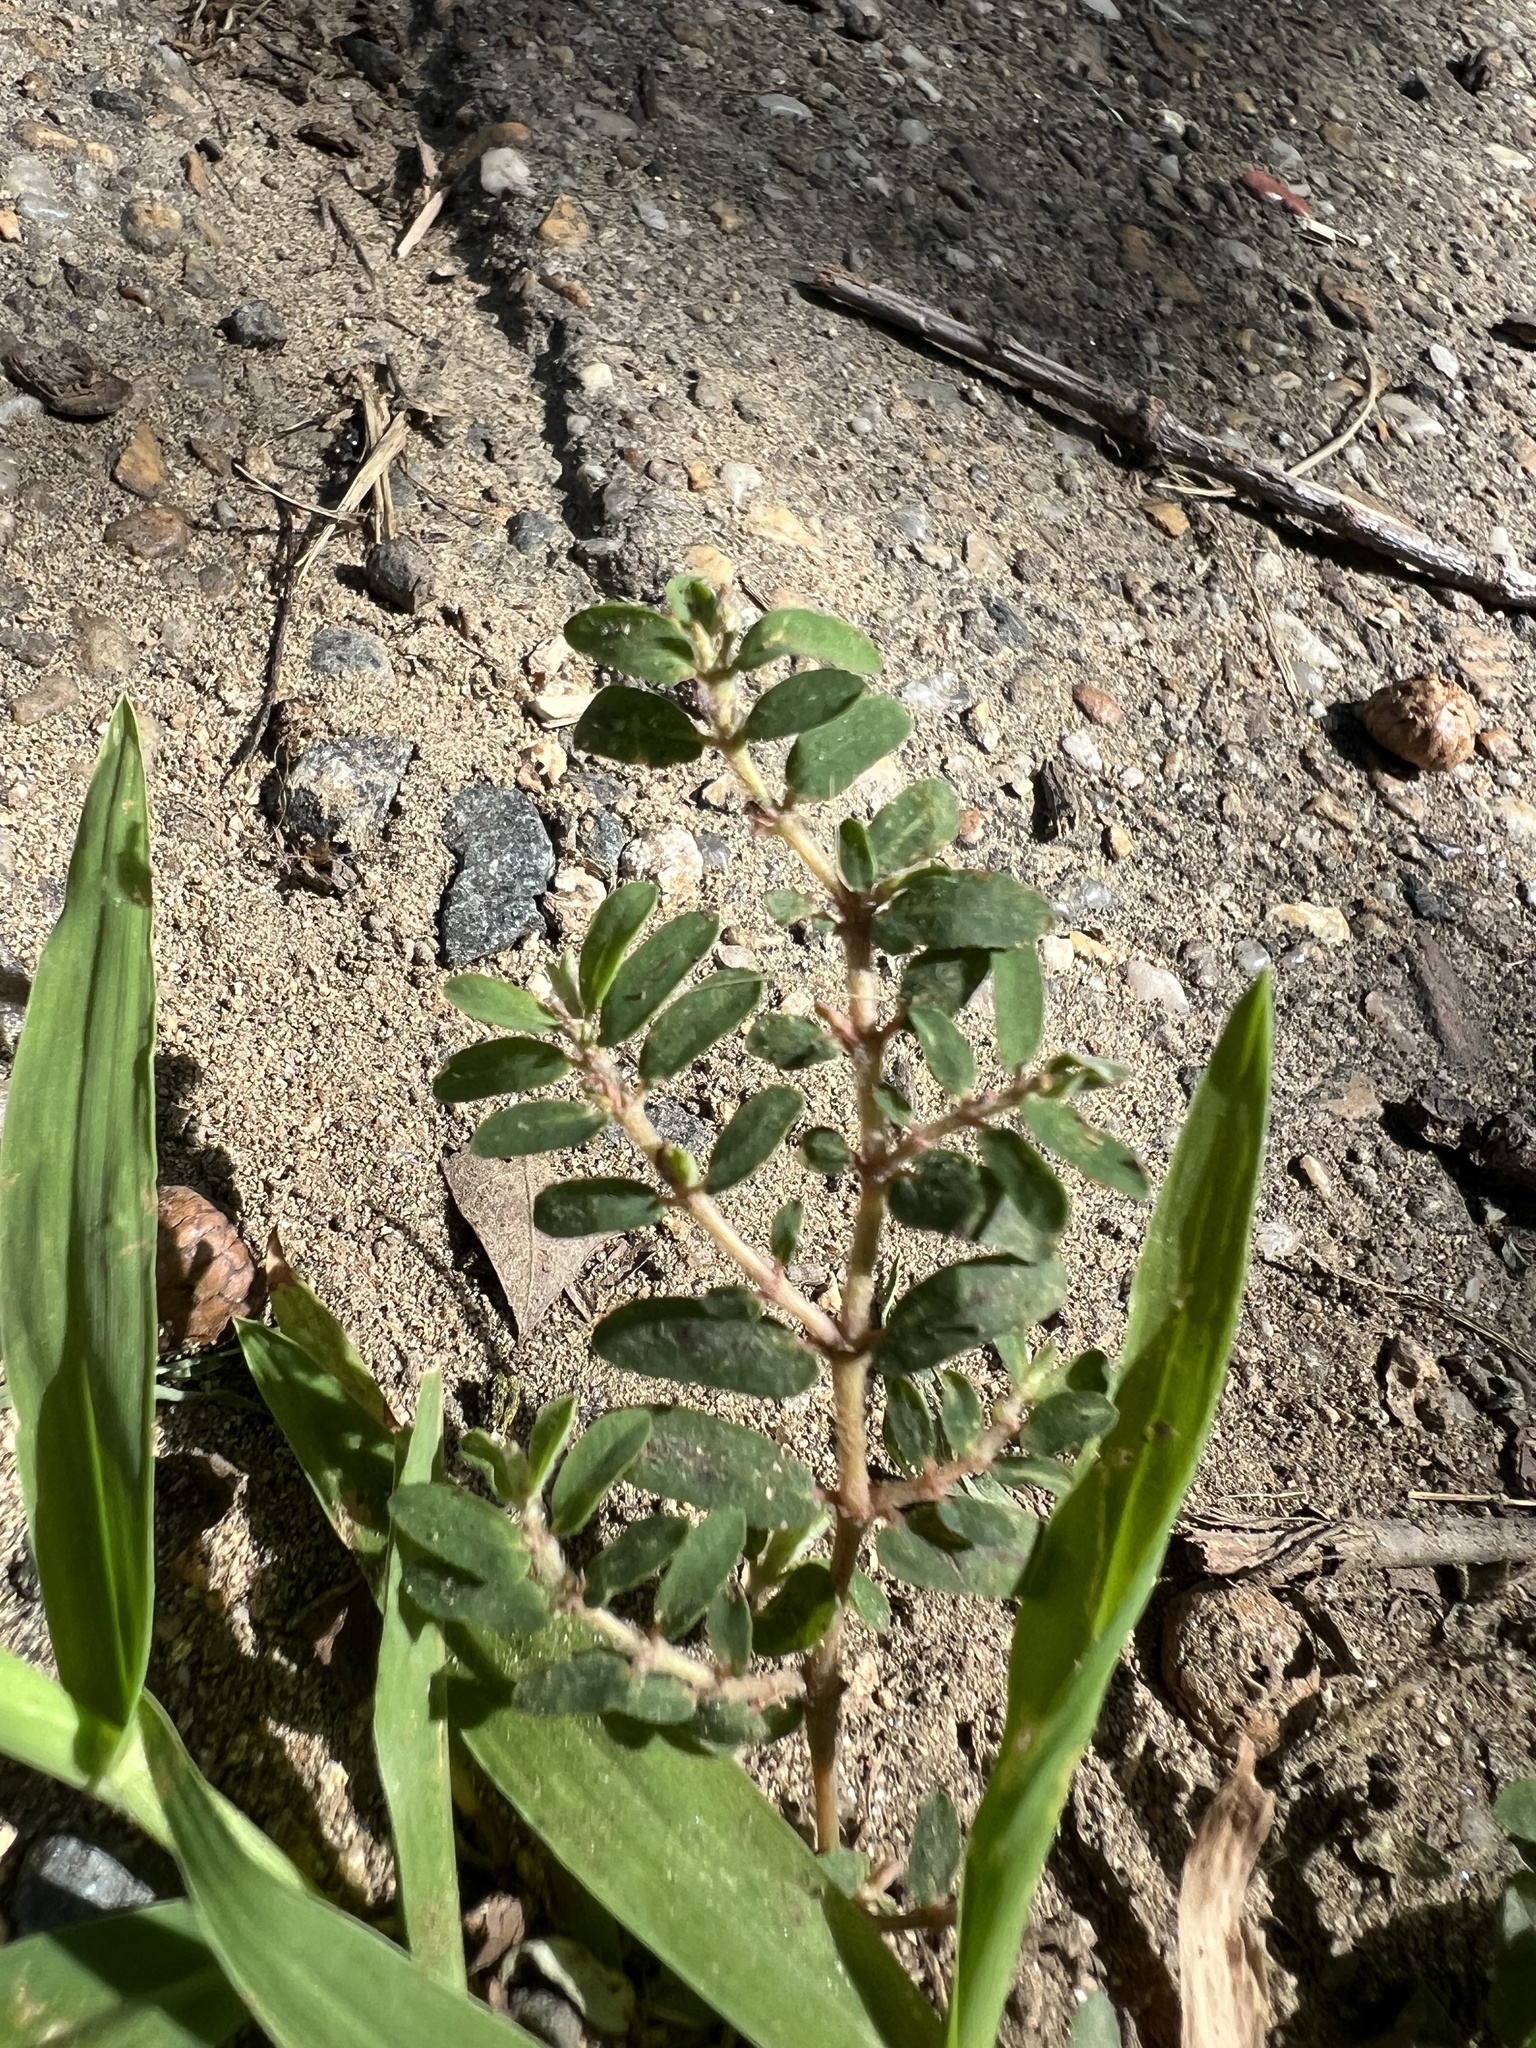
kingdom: Plantae
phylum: Tracheophyta
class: Magnoliopsida
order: Malpighiales
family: Euphorbiaceae
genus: Euphorbia
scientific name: Euphorbia maculata
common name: Spotted spurge
